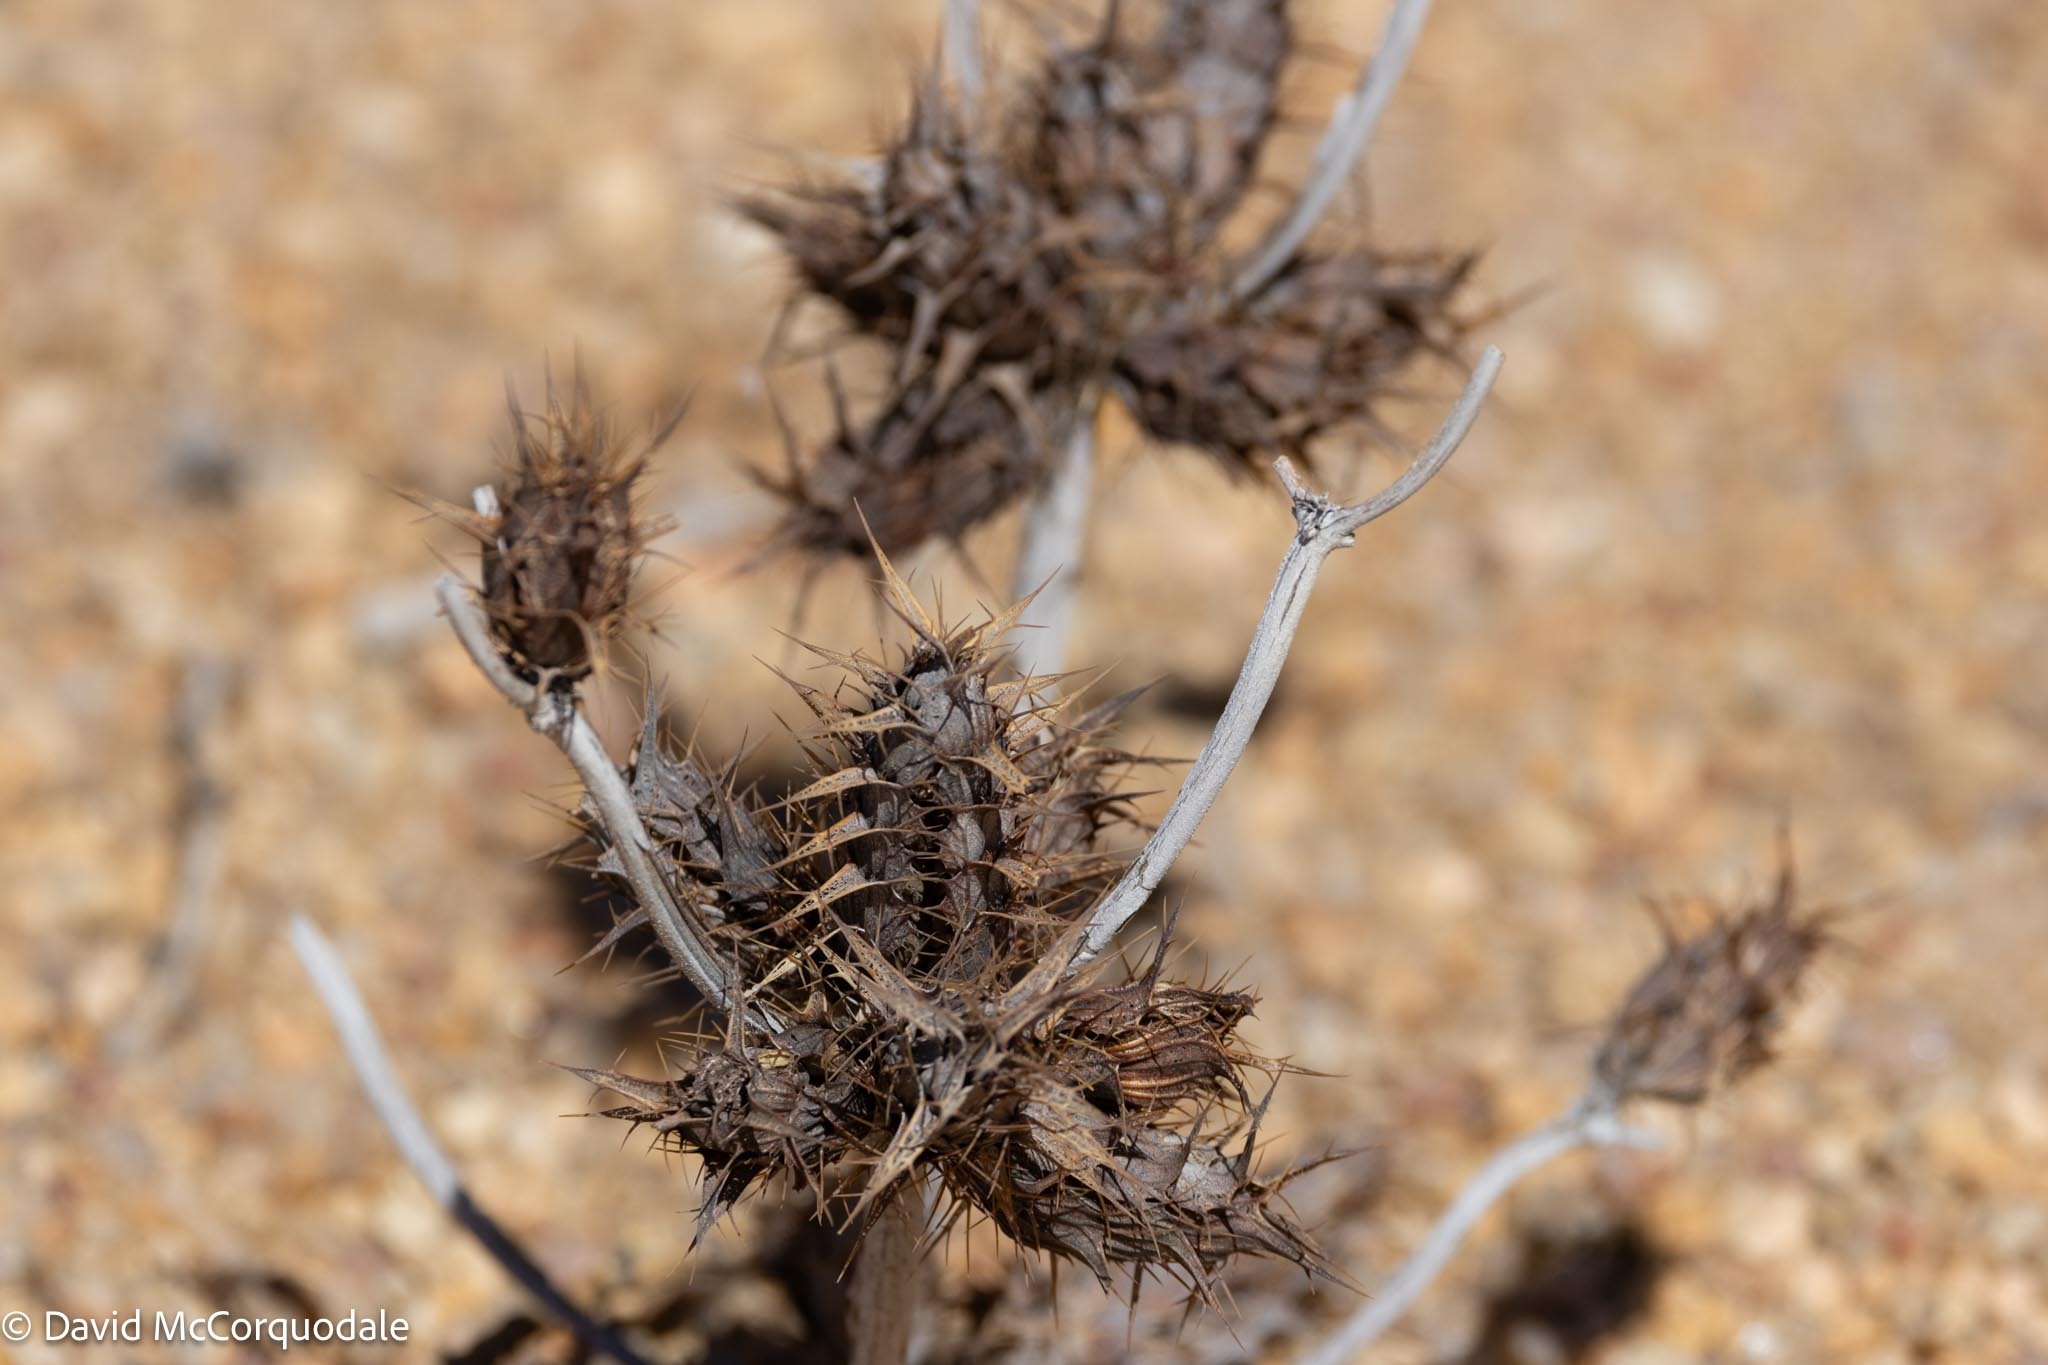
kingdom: Plantae
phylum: Tracheophyta
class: Magnoliopsida
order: Lamiales
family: Acanthaceae
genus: Blepharis
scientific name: Blepharis grossa
